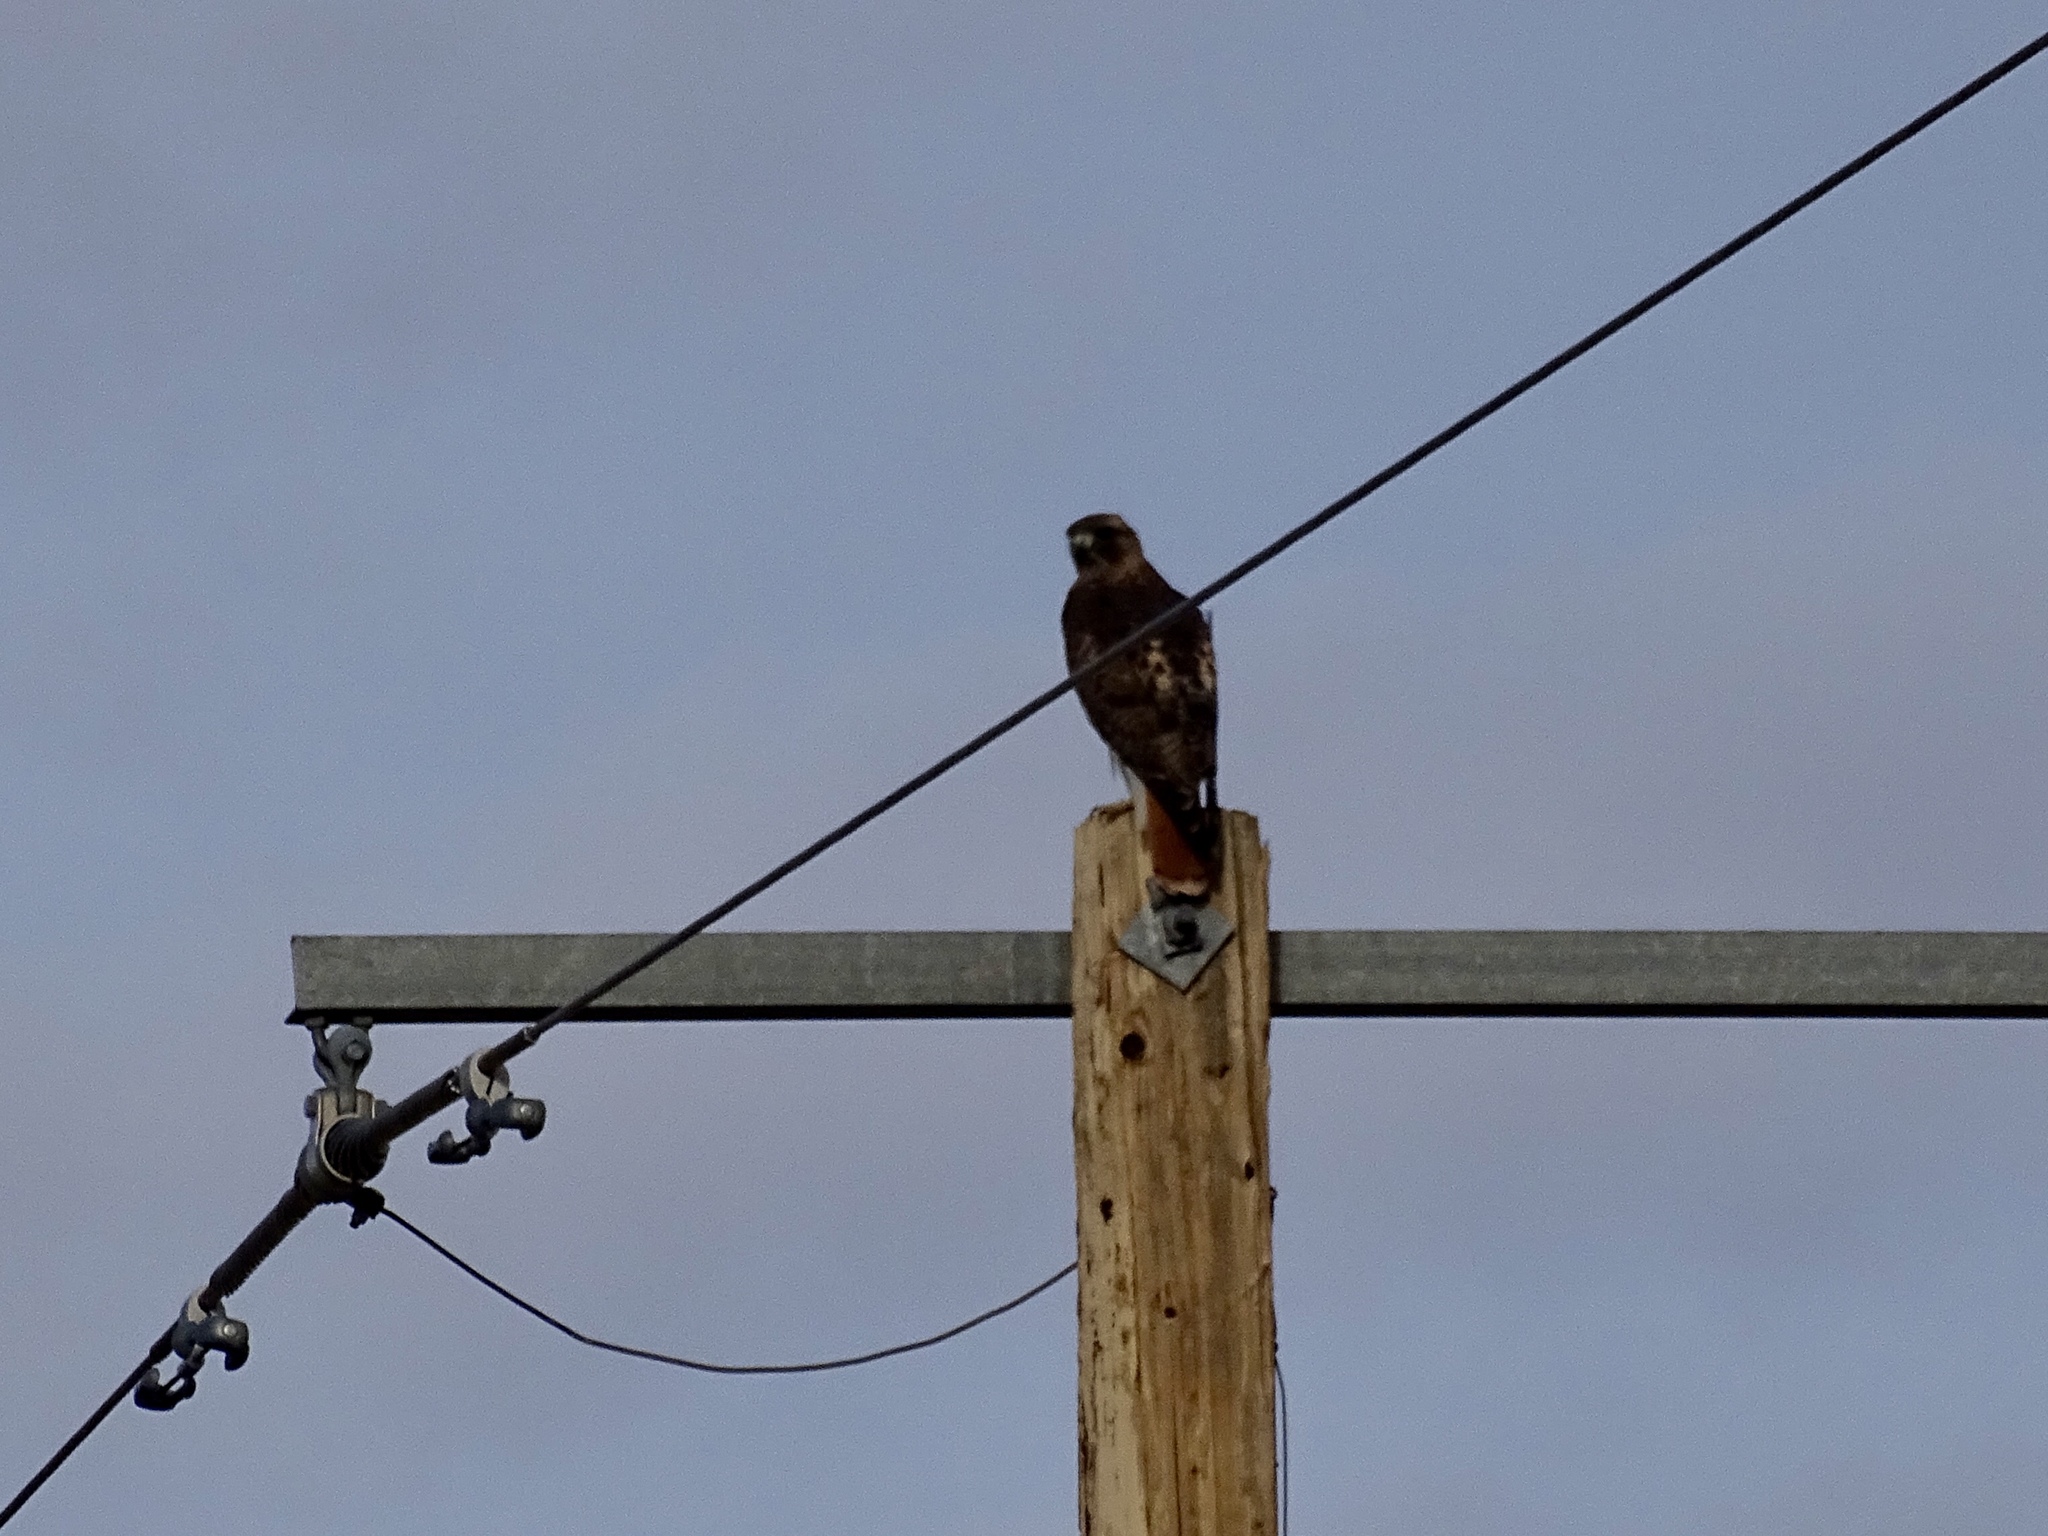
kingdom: Animalia
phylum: Chordata
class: Aves
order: Accipitriformes
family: Accipitridae
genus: Buteo
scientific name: Buteo jamaicensis
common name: Red-tailed hawk
